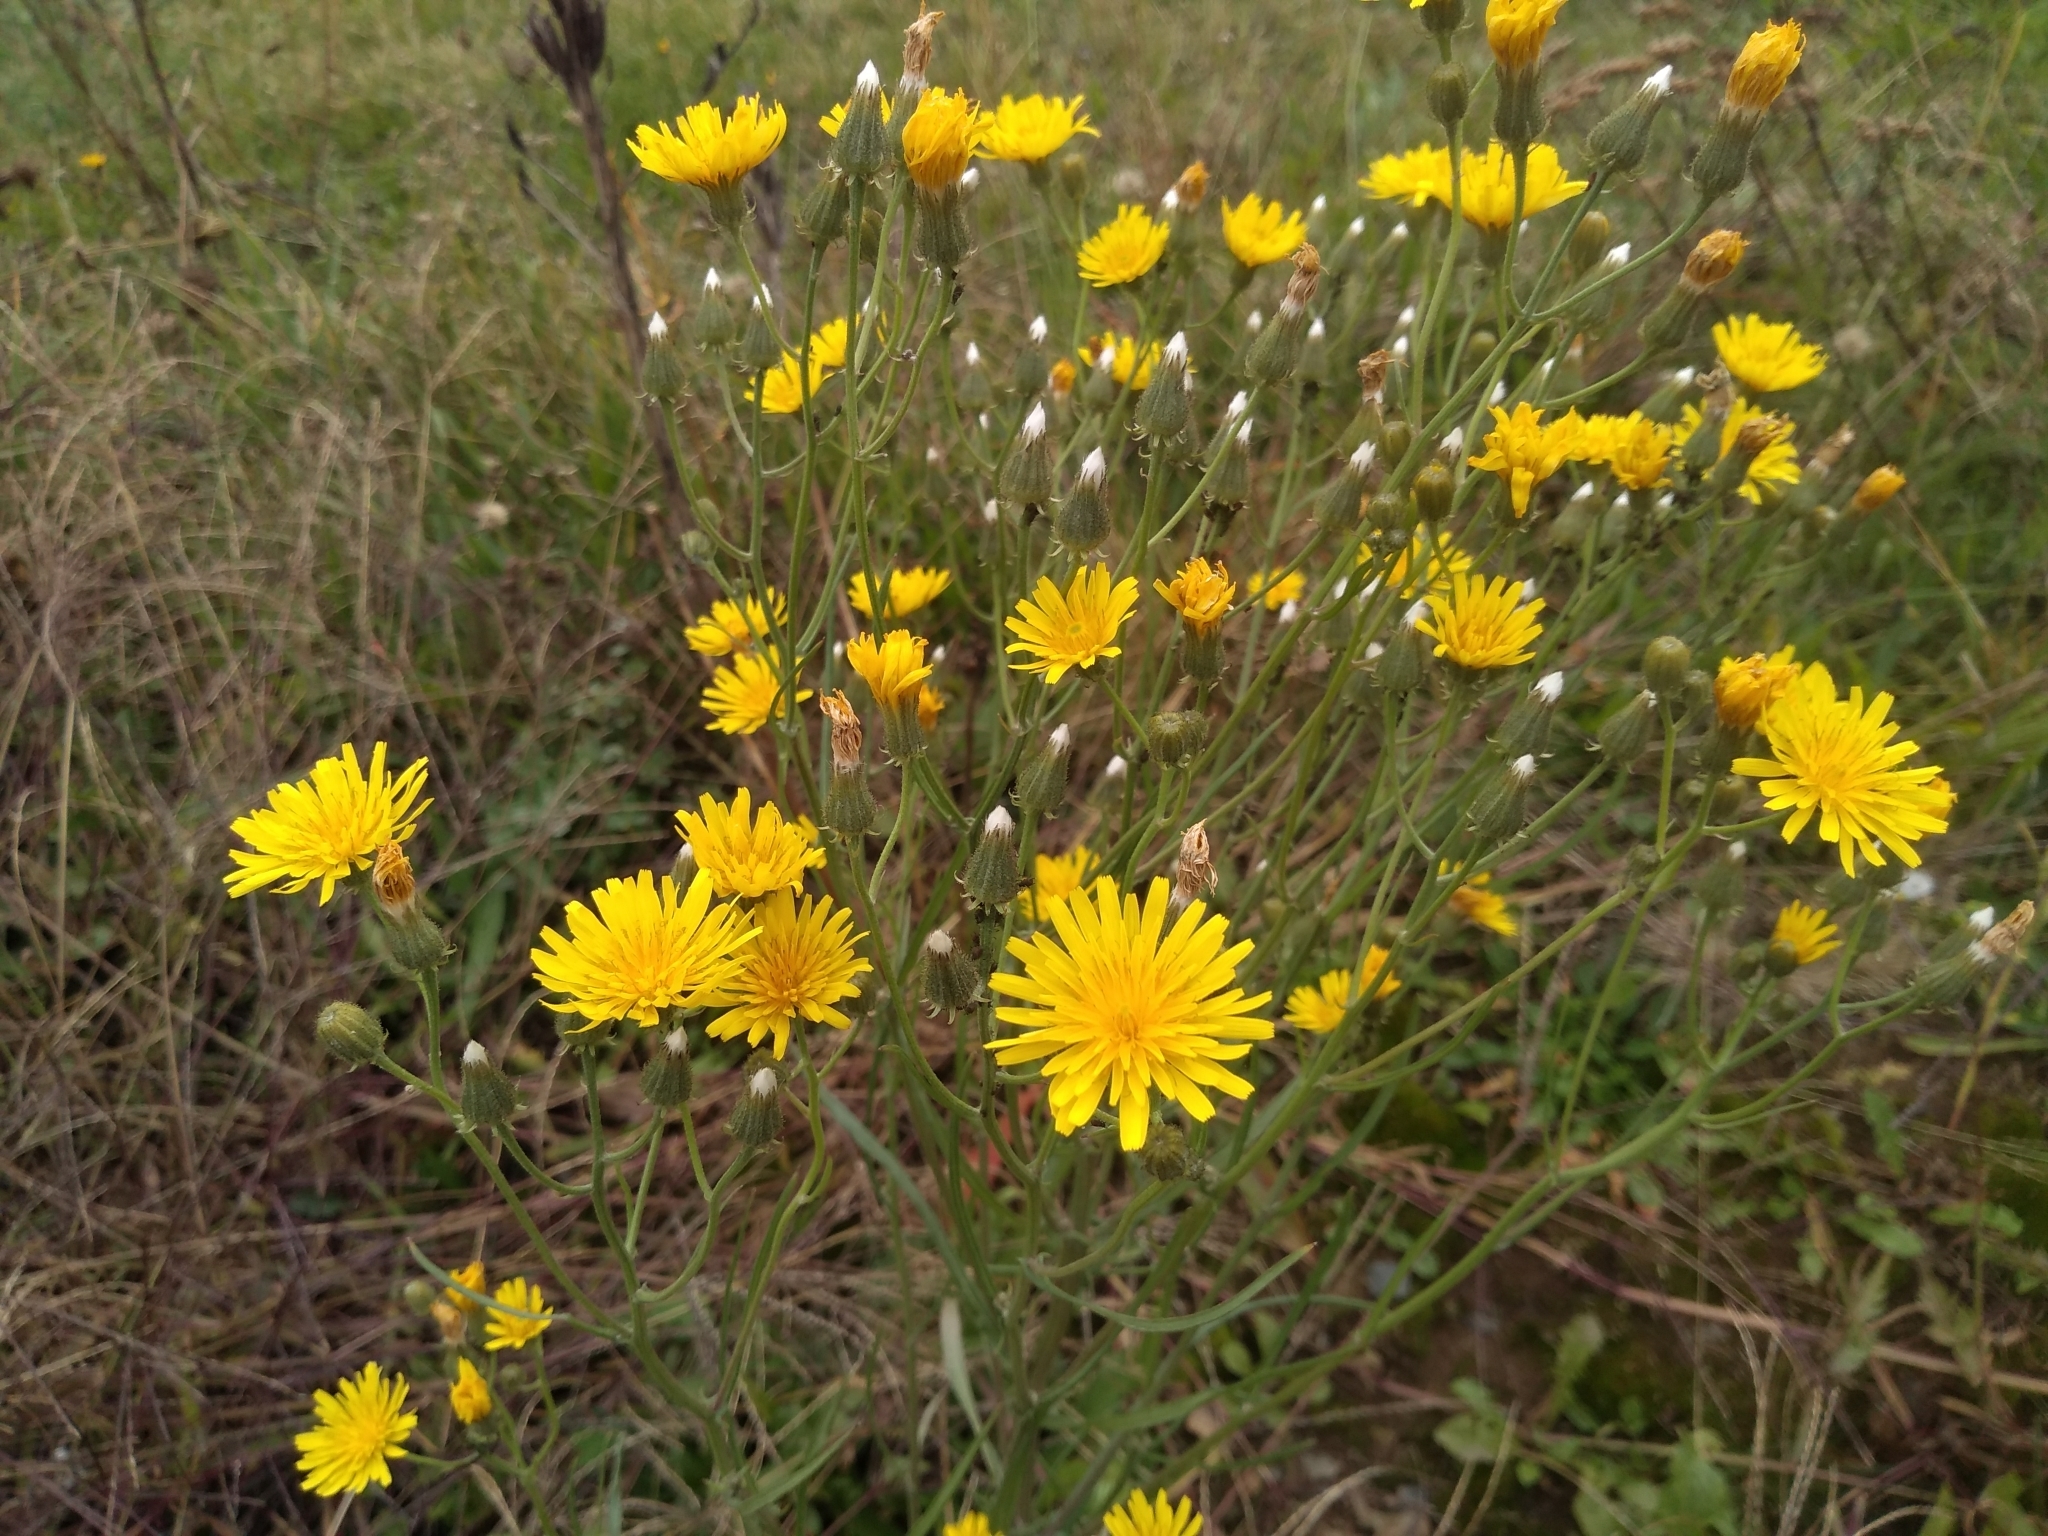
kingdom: Plantae
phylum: Tracheophyta
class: Magnoliopsida
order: Asterales
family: Asteraceae
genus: Crepis
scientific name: Crepis tectorum
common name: Narrow-leaved hawk's-beard
